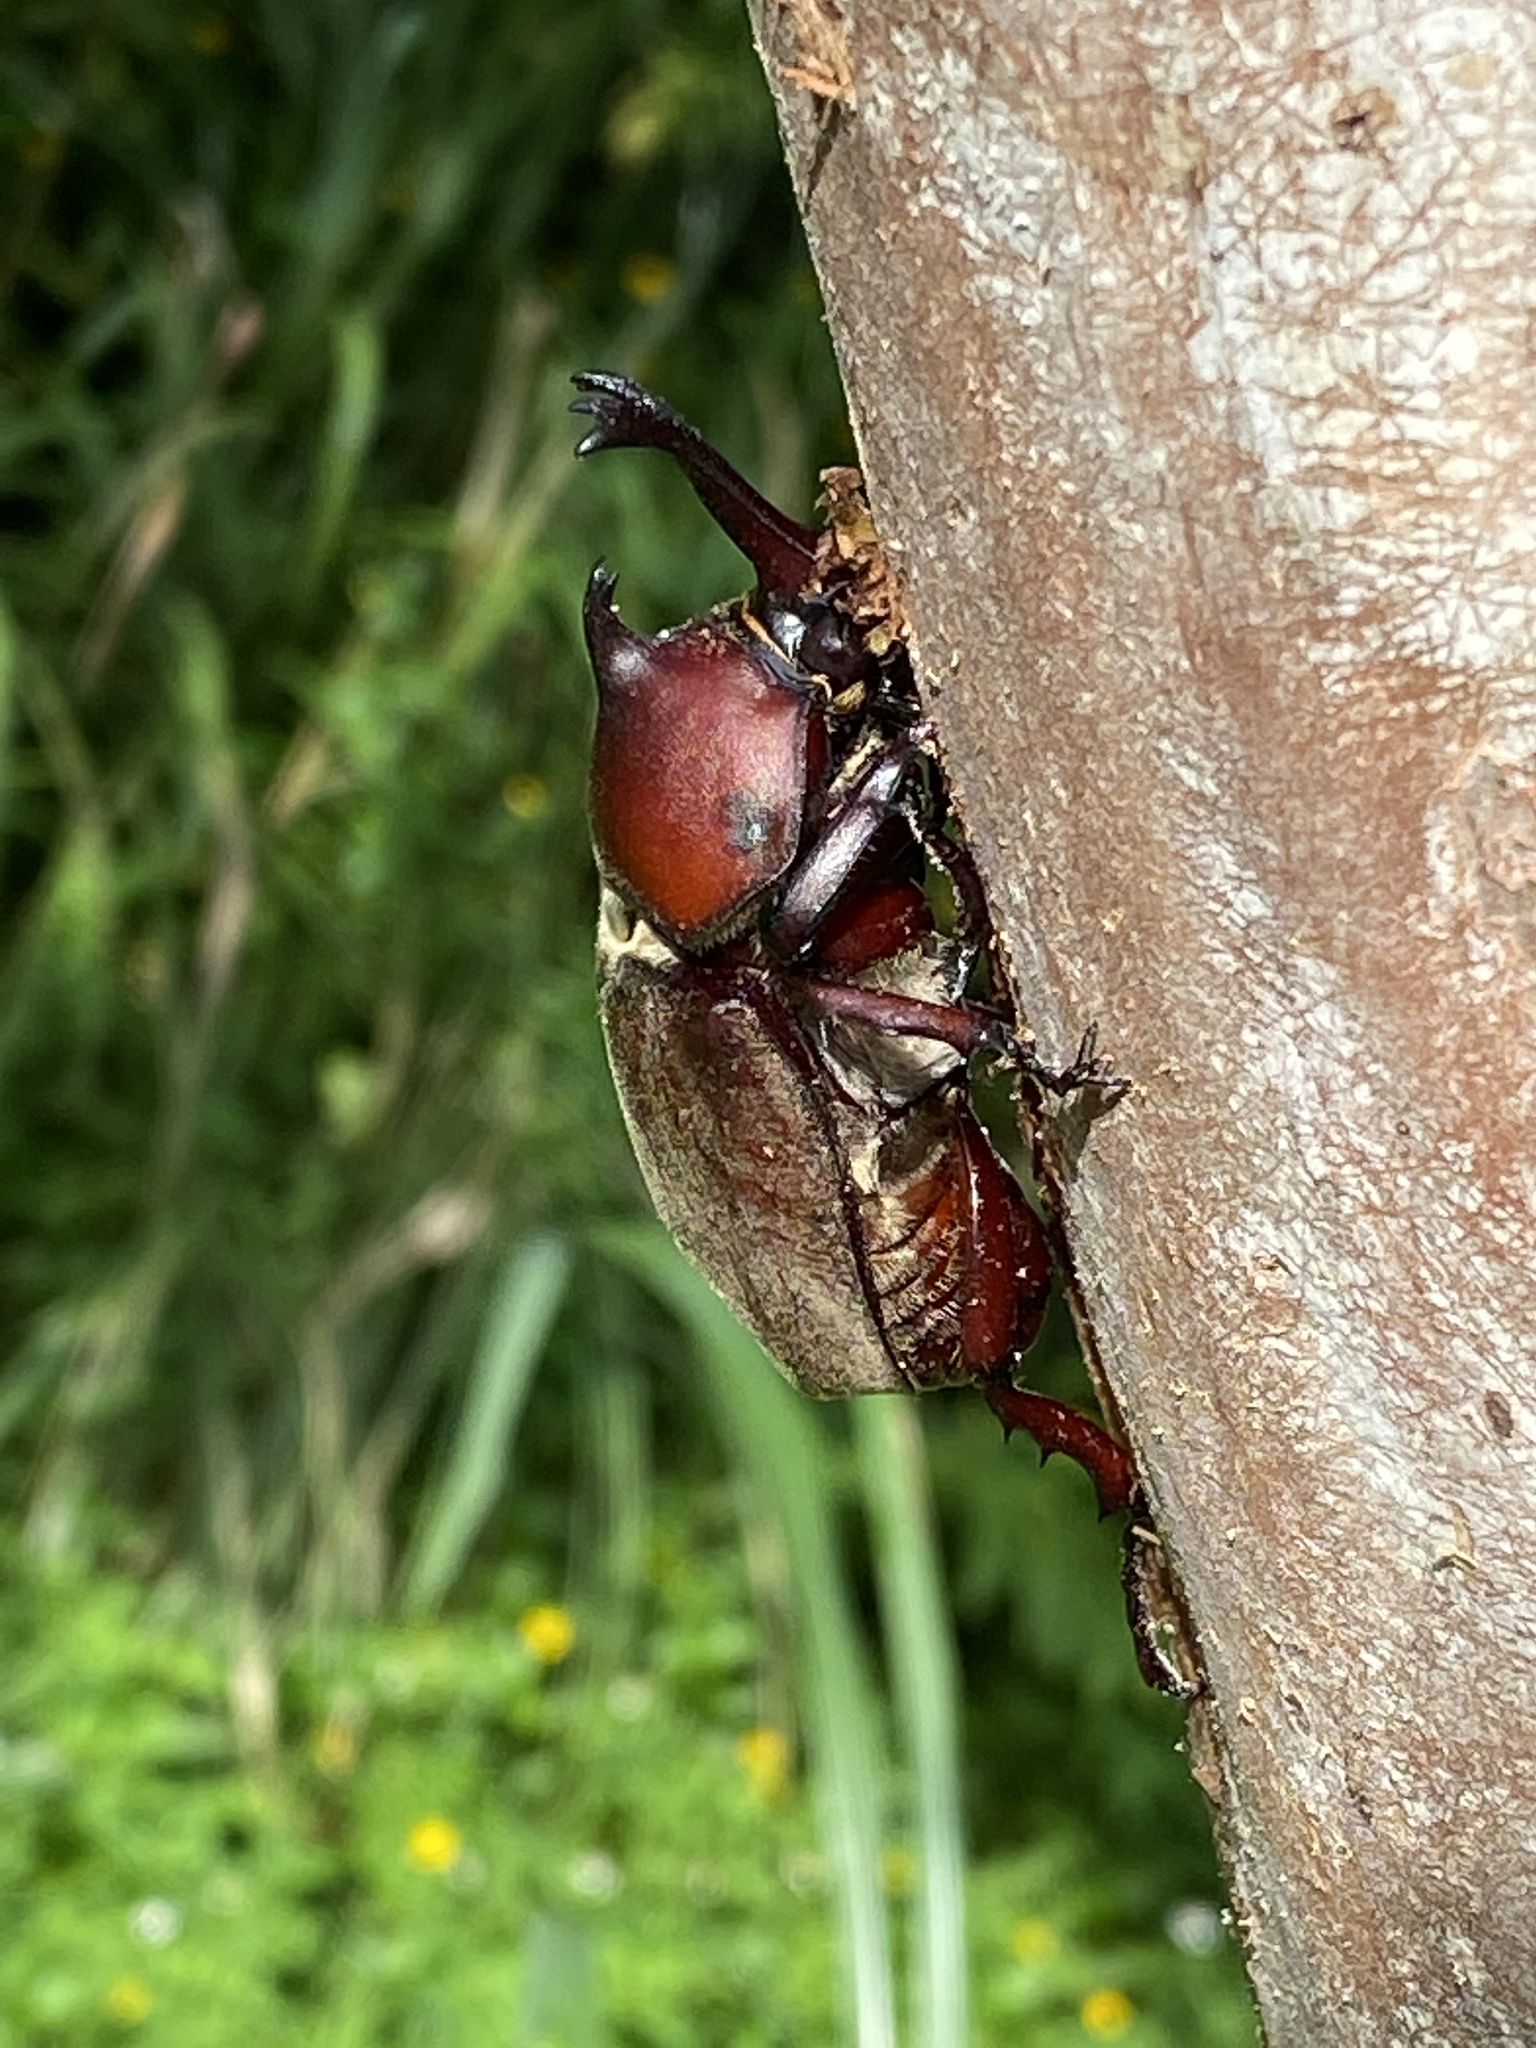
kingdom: Animalia
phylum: Arthropoda
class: Insecta
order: Coleoptera
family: Scarabaeidae
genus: Trypoxylus
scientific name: Trypoxylus dichotomus
